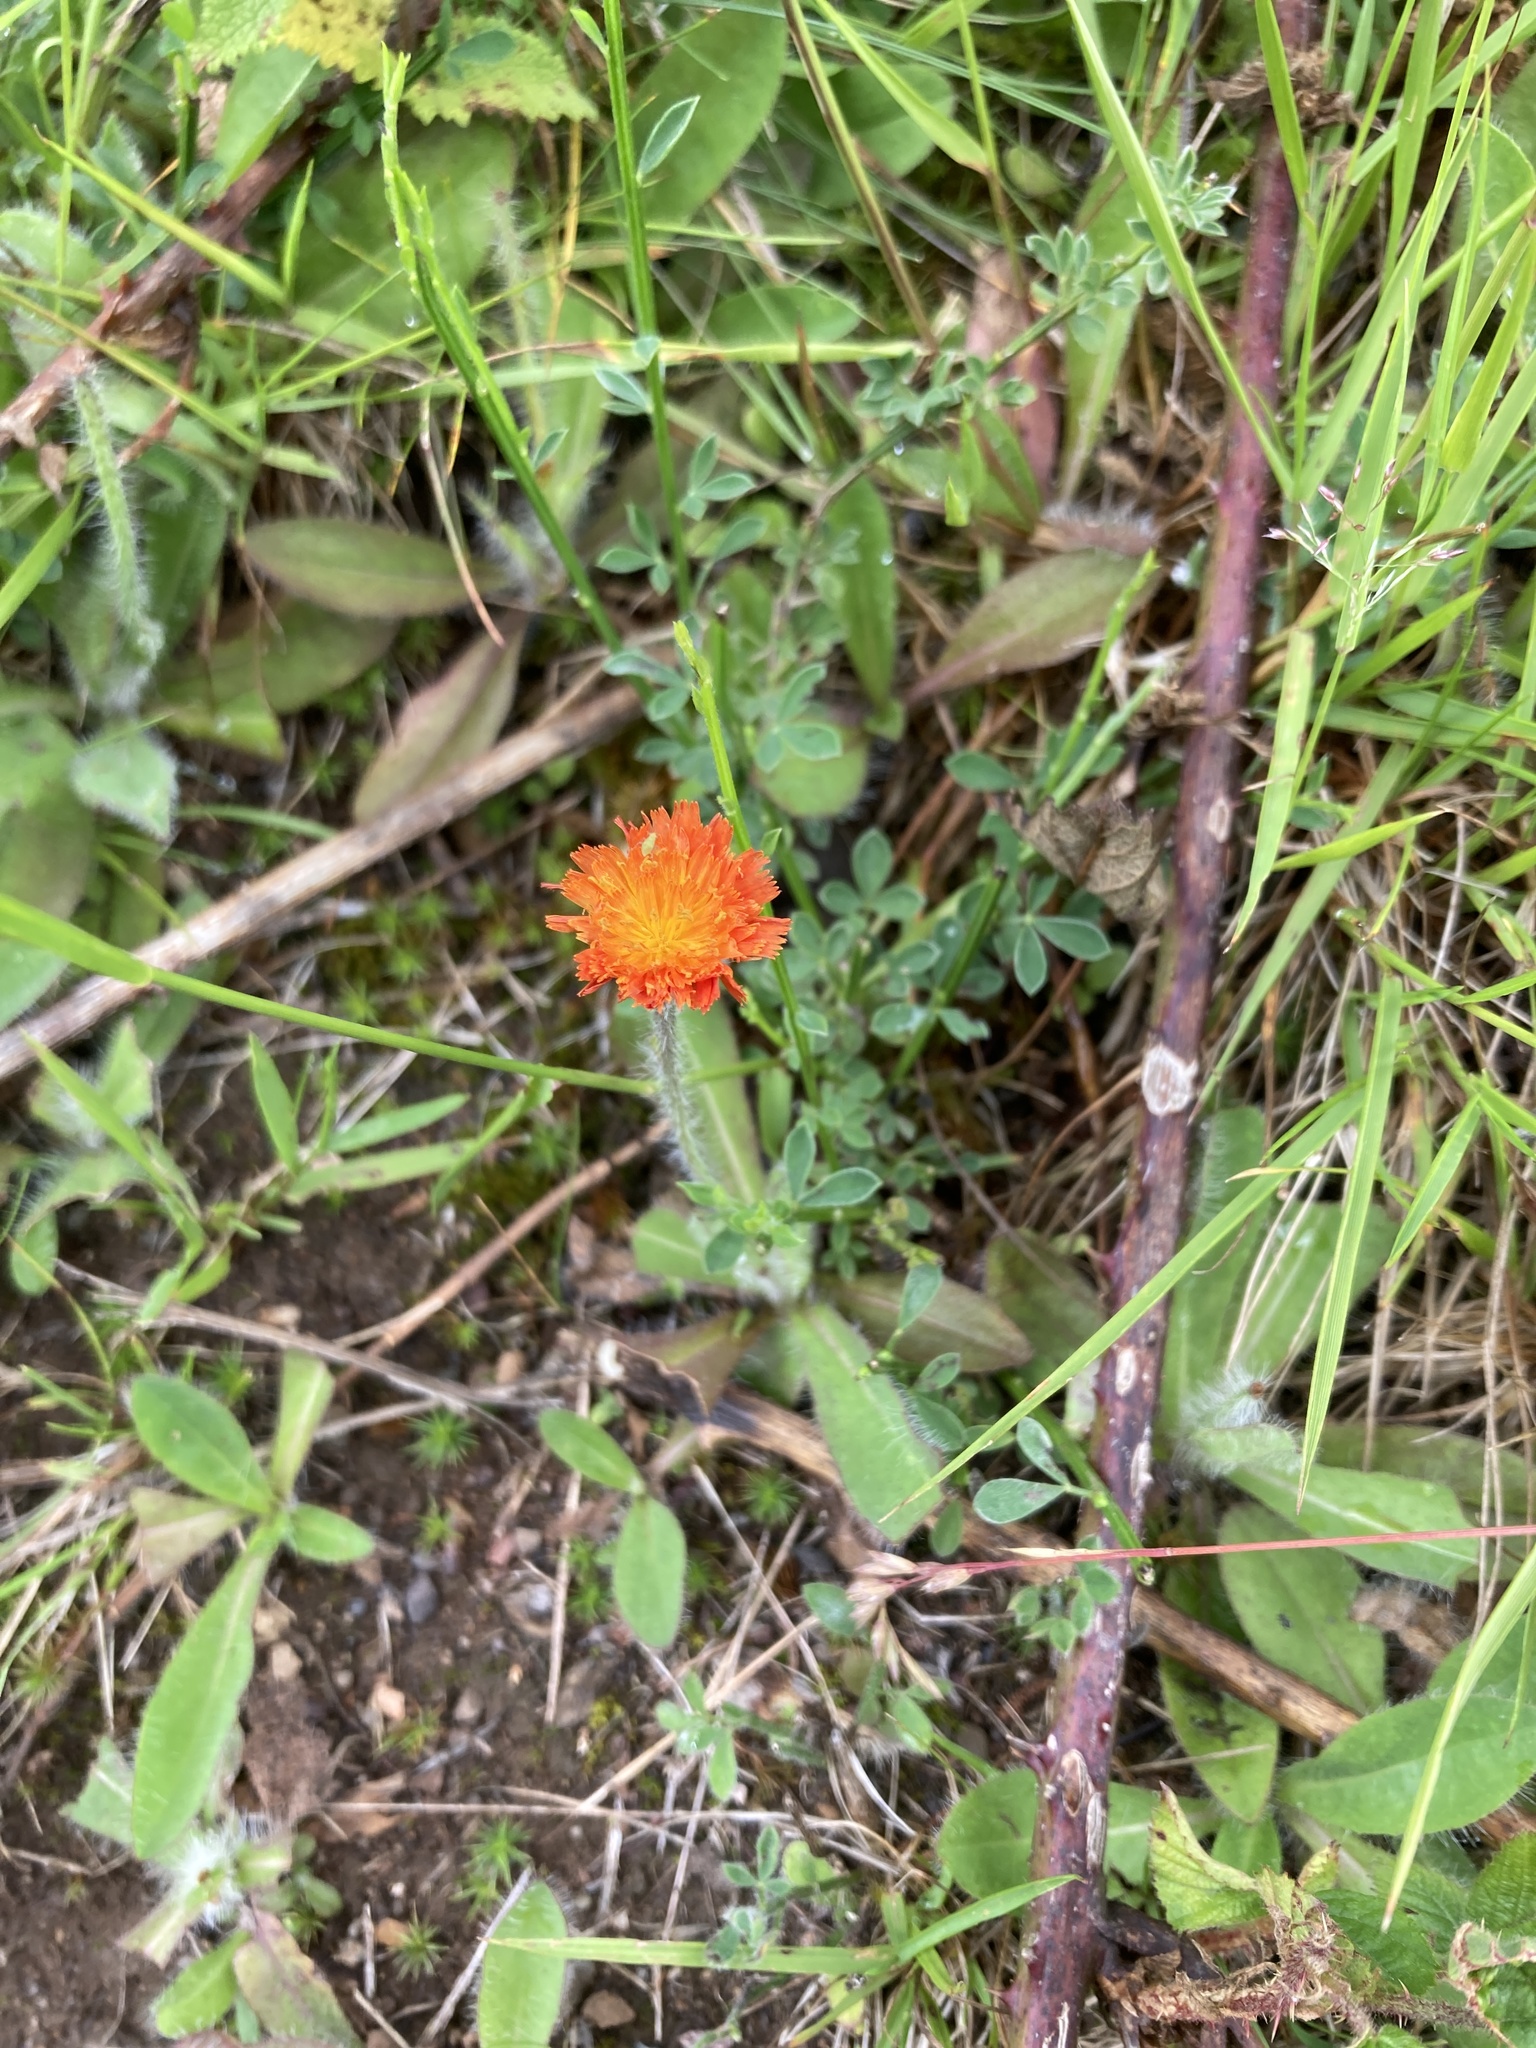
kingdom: Plantae
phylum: Tracheophyta
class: Magnoliopsida
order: Asterales
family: Asteraceae
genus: Pilosella
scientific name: Pilosella aurantiaca
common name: Fox-and-cubs
